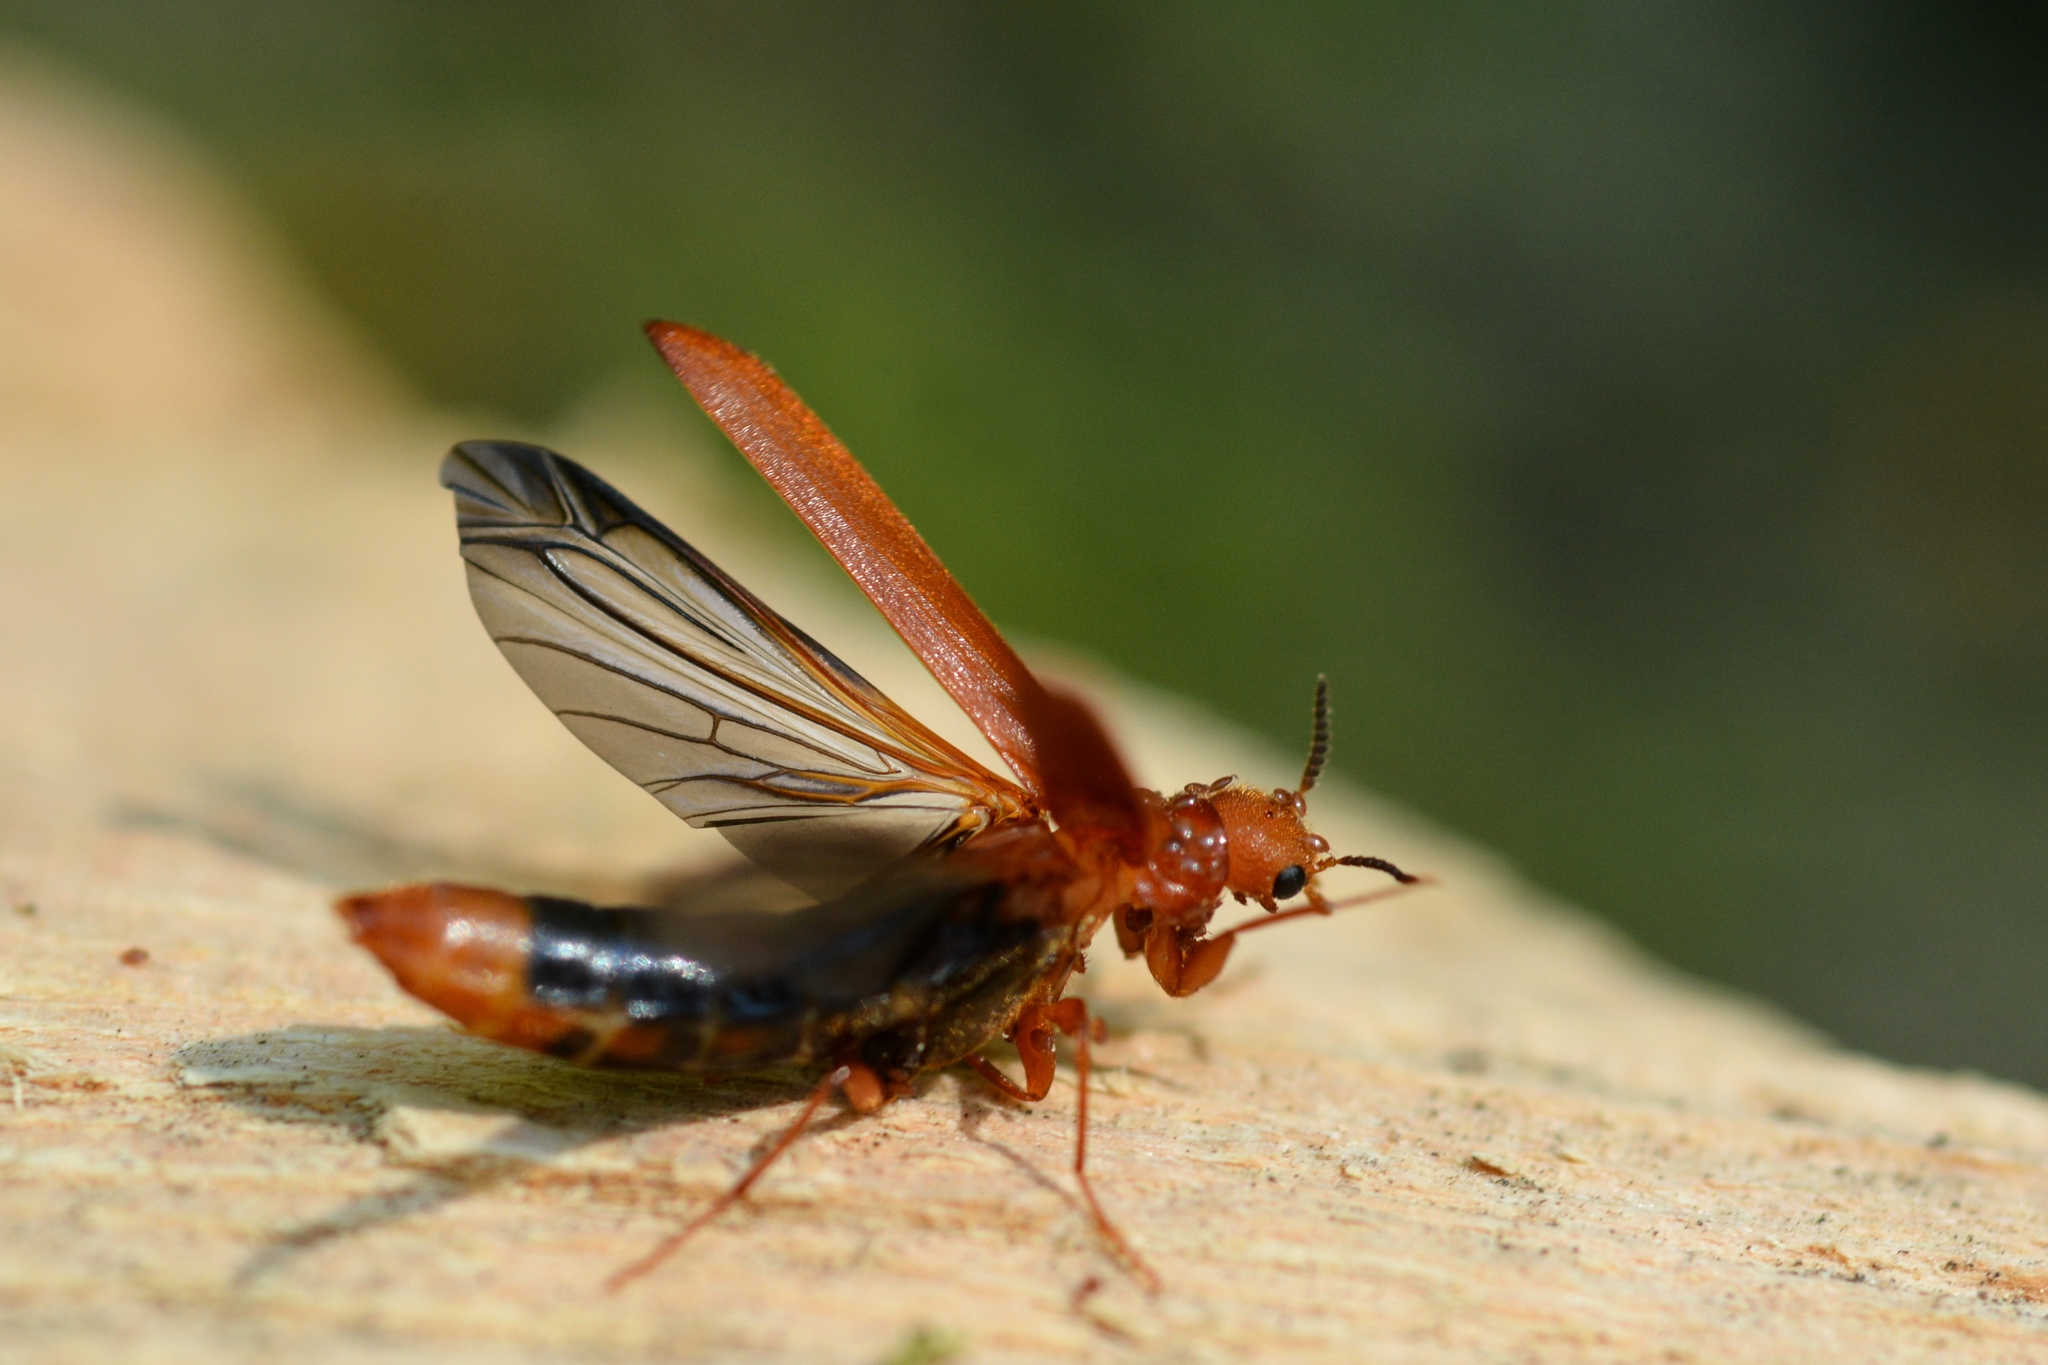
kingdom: Animalia
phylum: Arthropoda
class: Insecta
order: Coleoptera
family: Lymexylidae
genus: Hylecoetus
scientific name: Hylecoetus dermestoides
